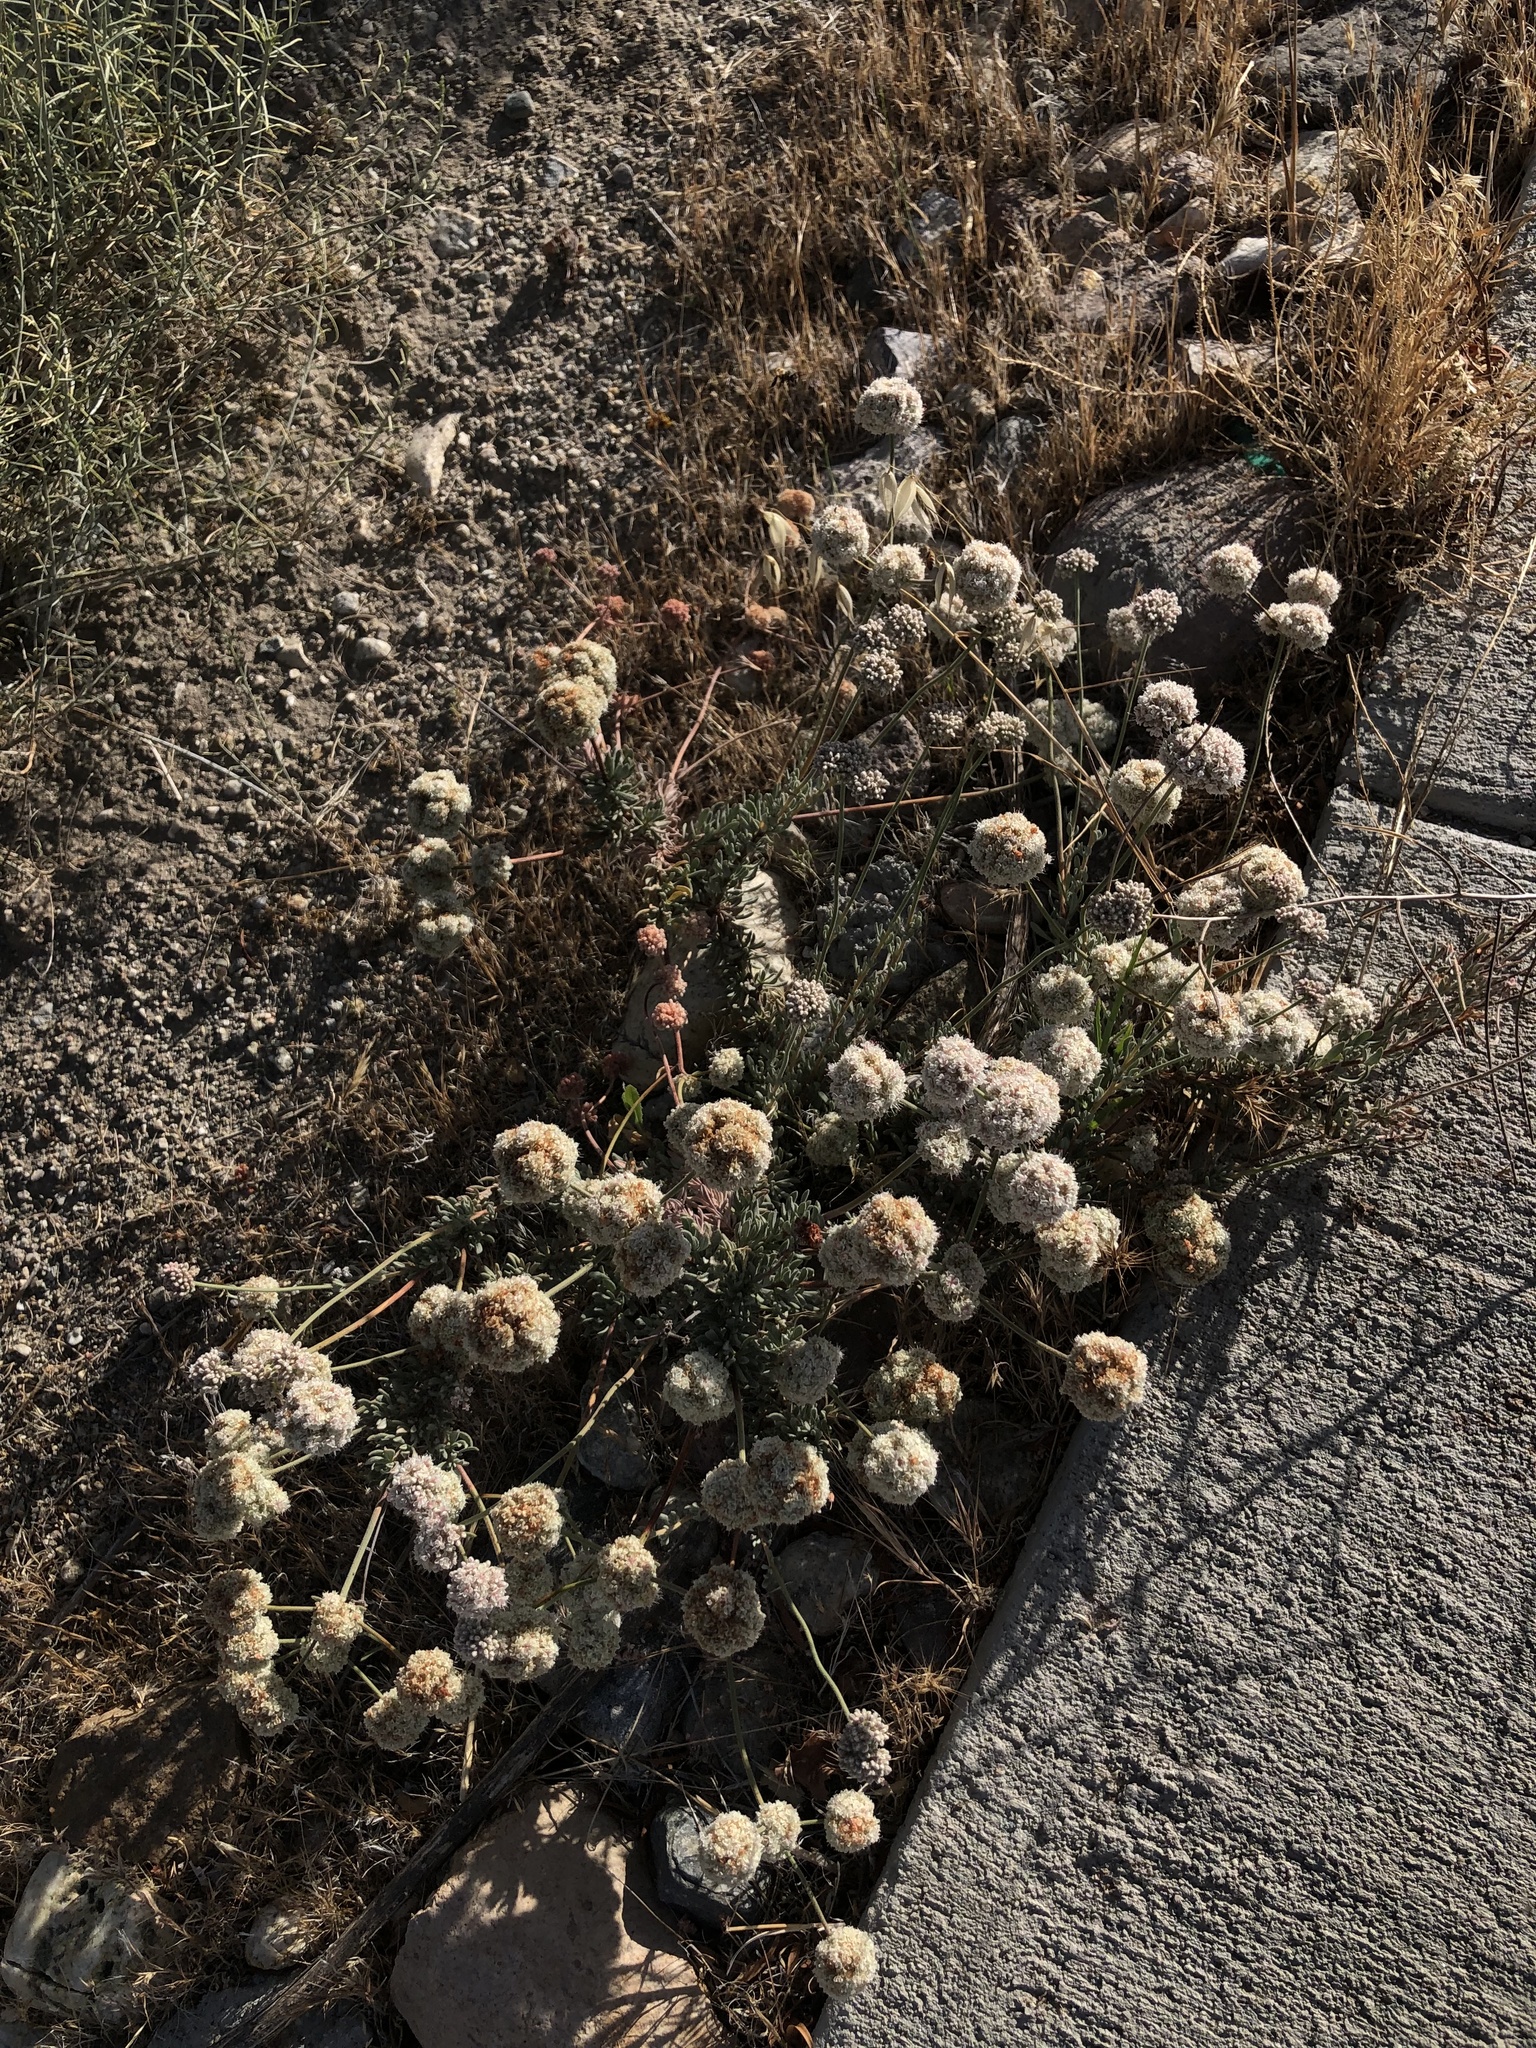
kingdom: Plantae
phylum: Tracheophyta
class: Magnoliopsida
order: Caryophyllales
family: Polygonaceae
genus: Eriogonum
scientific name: Eriogonum fasciculatum
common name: California wild buckwheat
